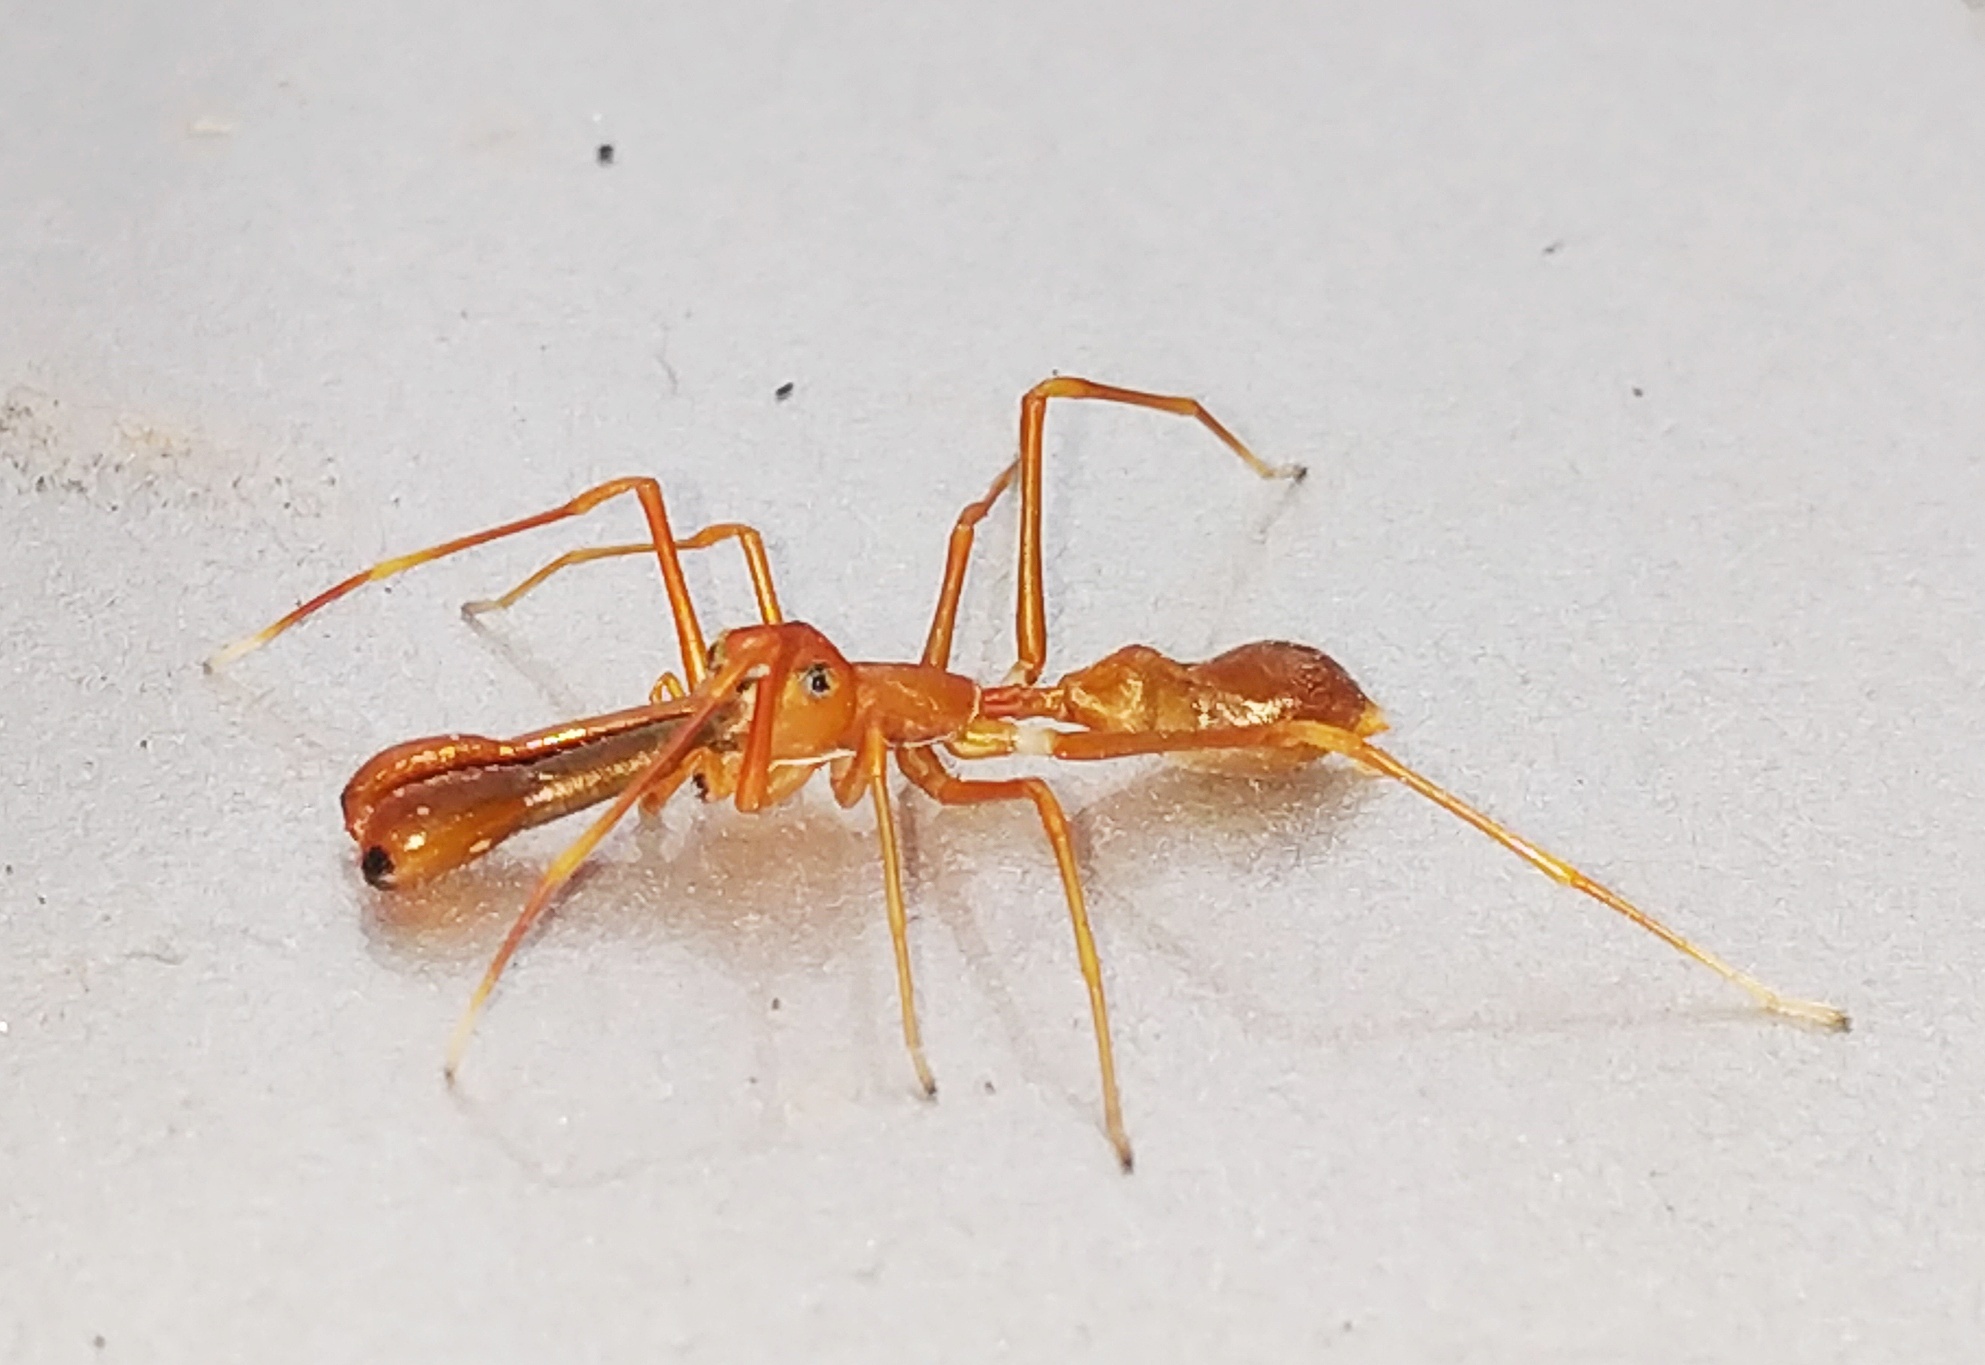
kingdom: Animalia
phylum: Arthropoda
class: Arachnida
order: Araneae
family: Salticidae
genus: Myrmaplata
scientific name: Myrmaplata plataleoides
